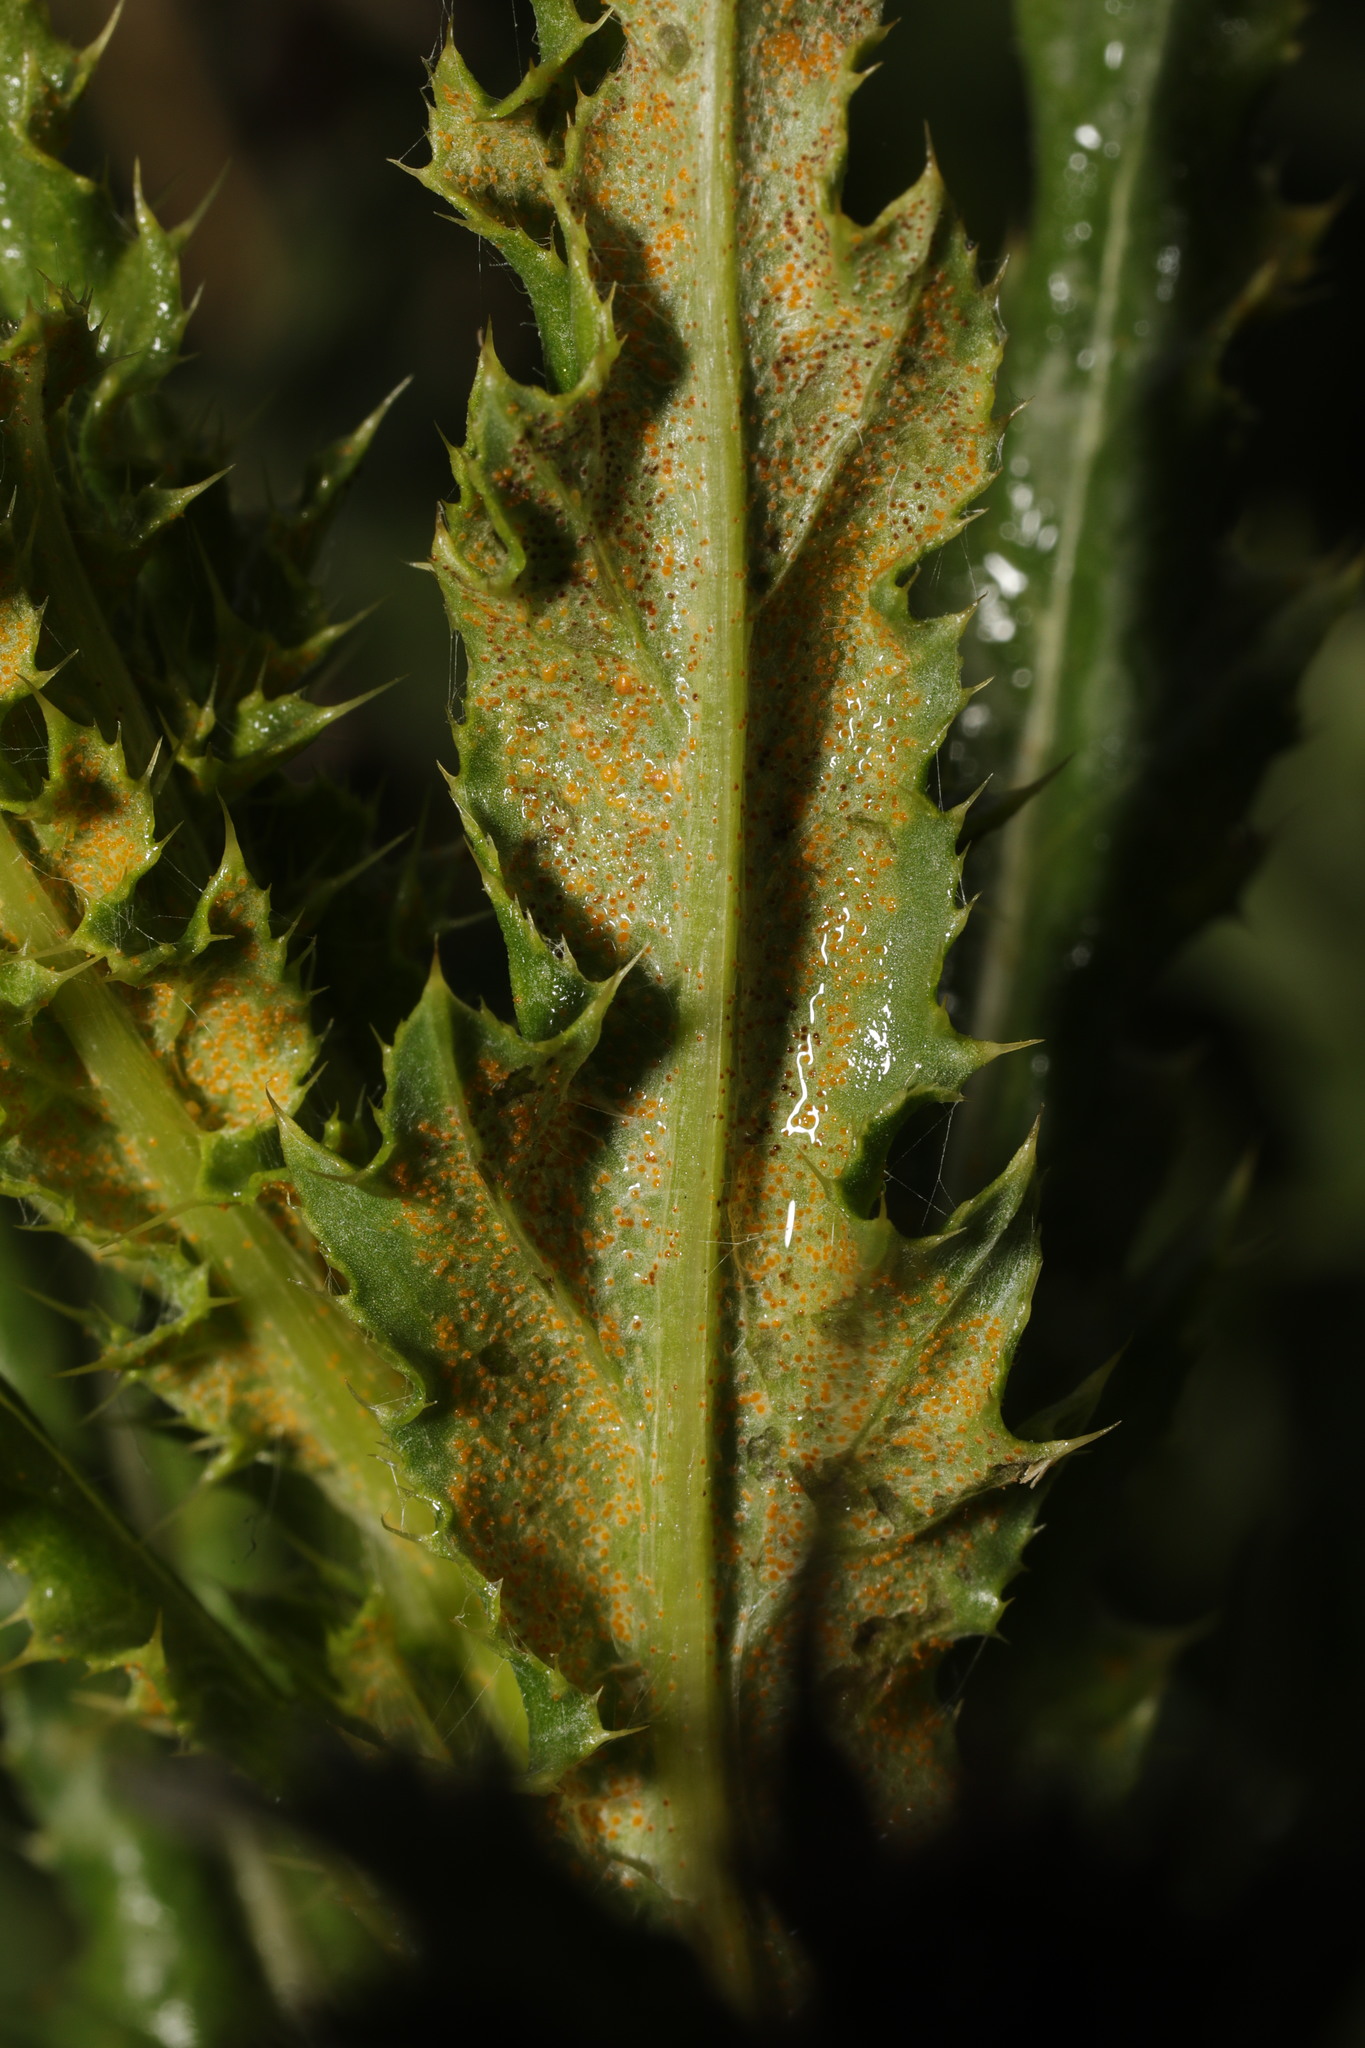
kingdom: Fungi
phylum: Basidiomycota
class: Pucciniomycetes
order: Pucciniales
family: Pucciniaceae
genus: Puccinia
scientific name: Puccinia suaveolens
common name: Thistle rust
